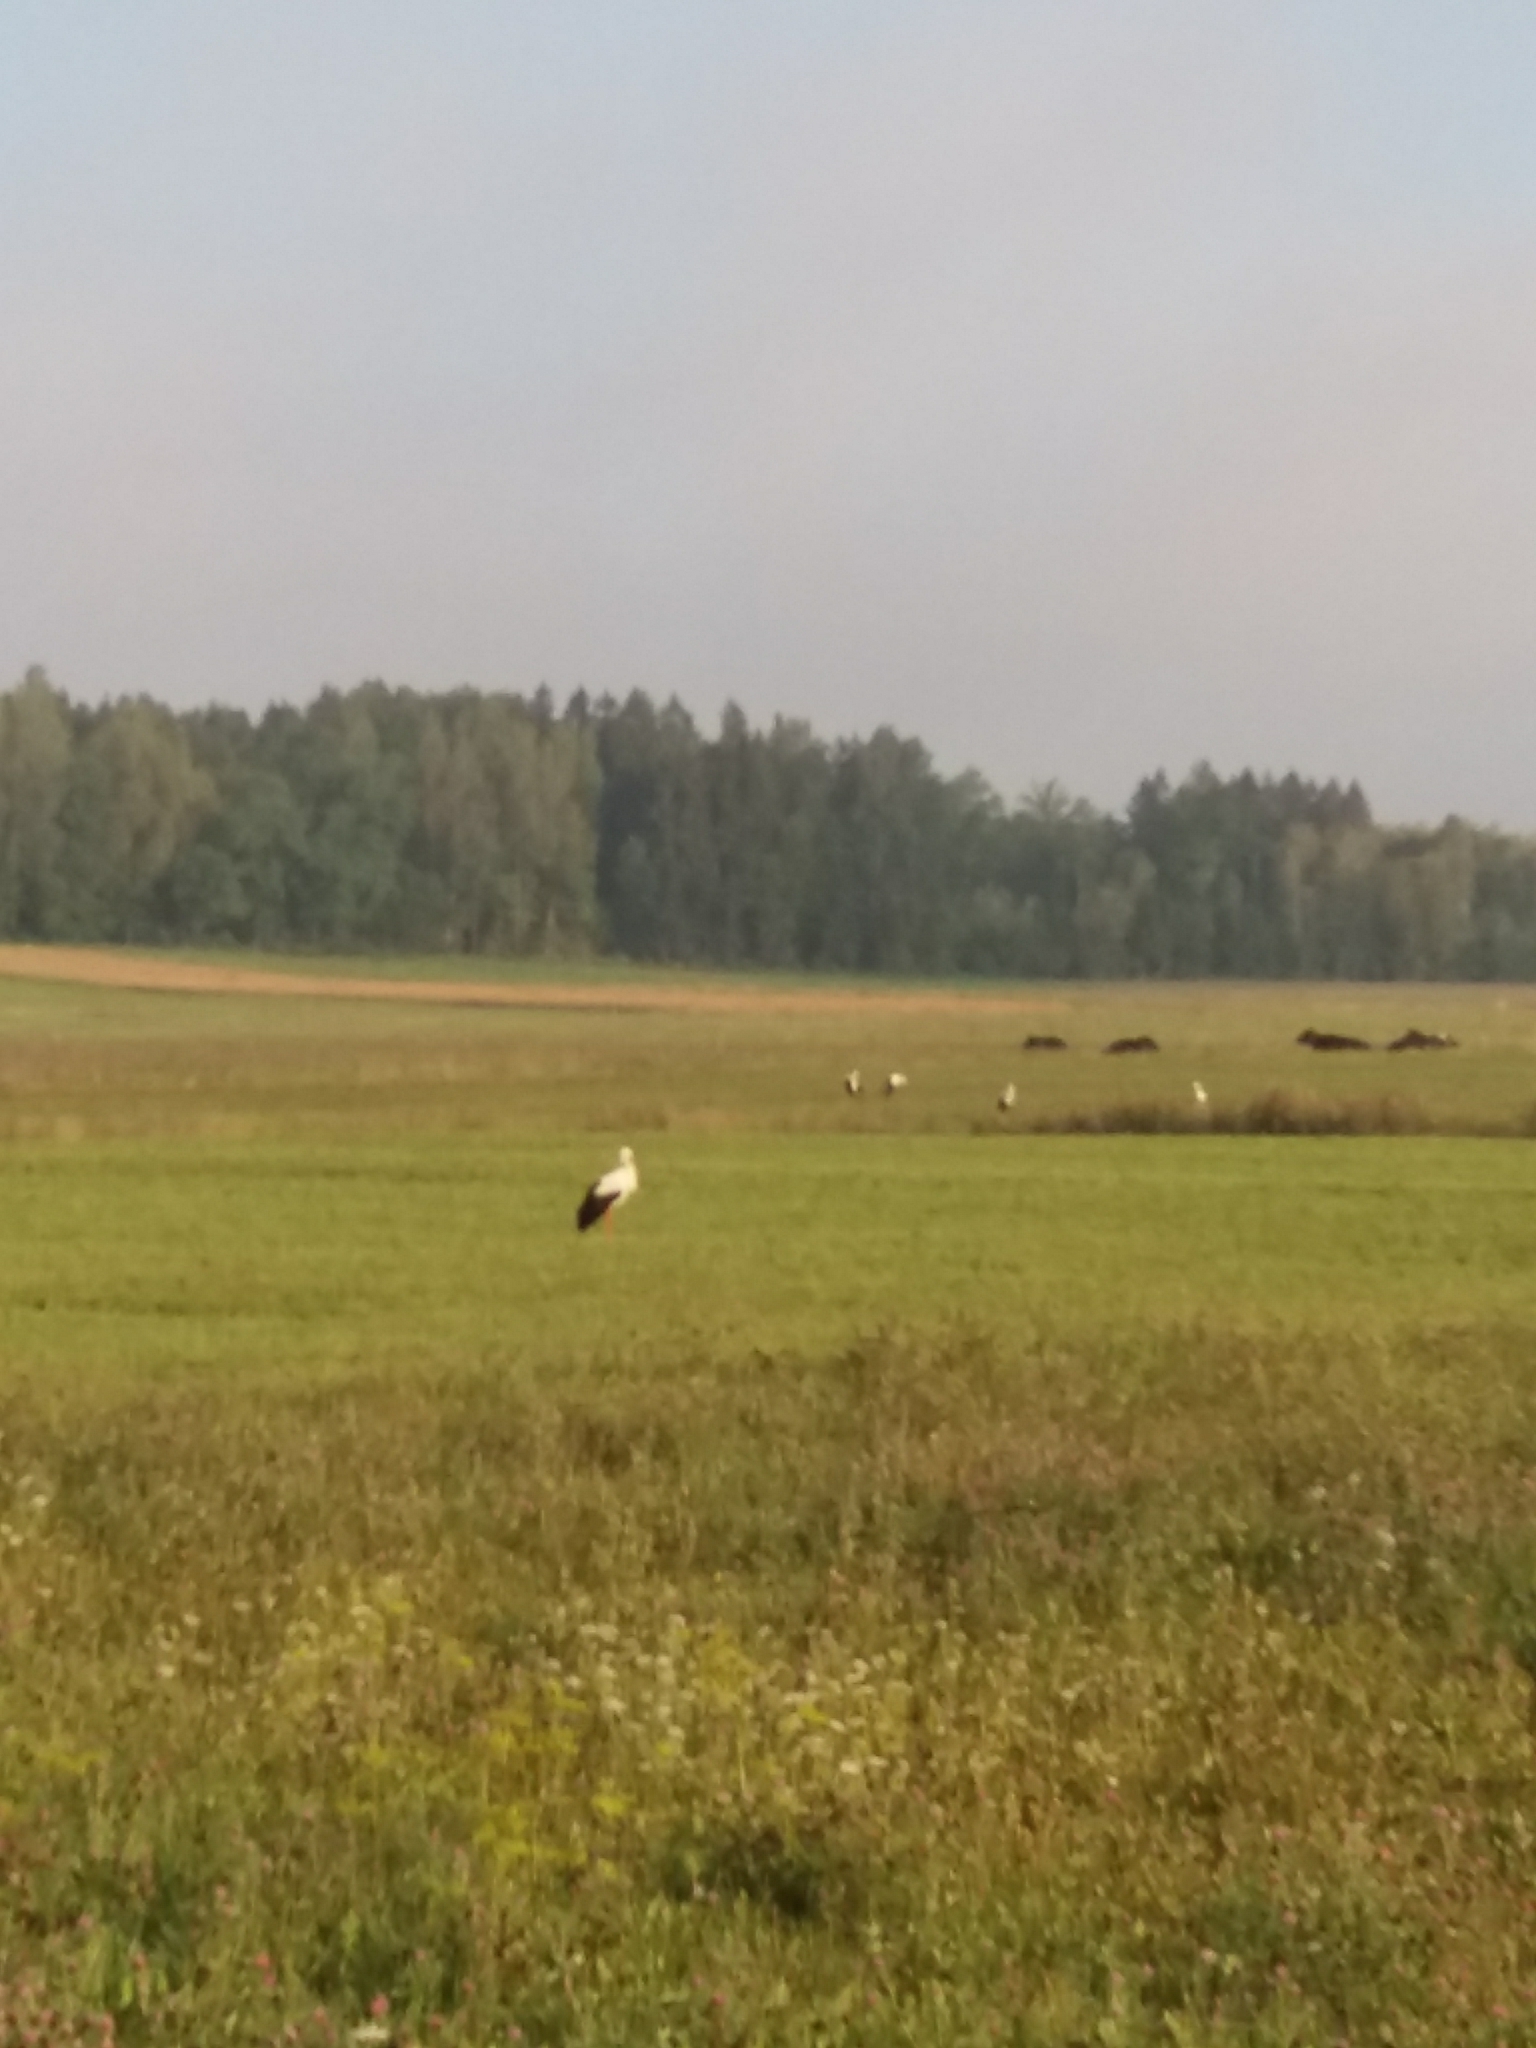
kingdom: Animalia
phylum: Chordata
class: Aves
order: Ciconiiformes
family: Ciconiidae
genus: Ciconia
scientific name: Ciconia ciconia
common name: White stork
